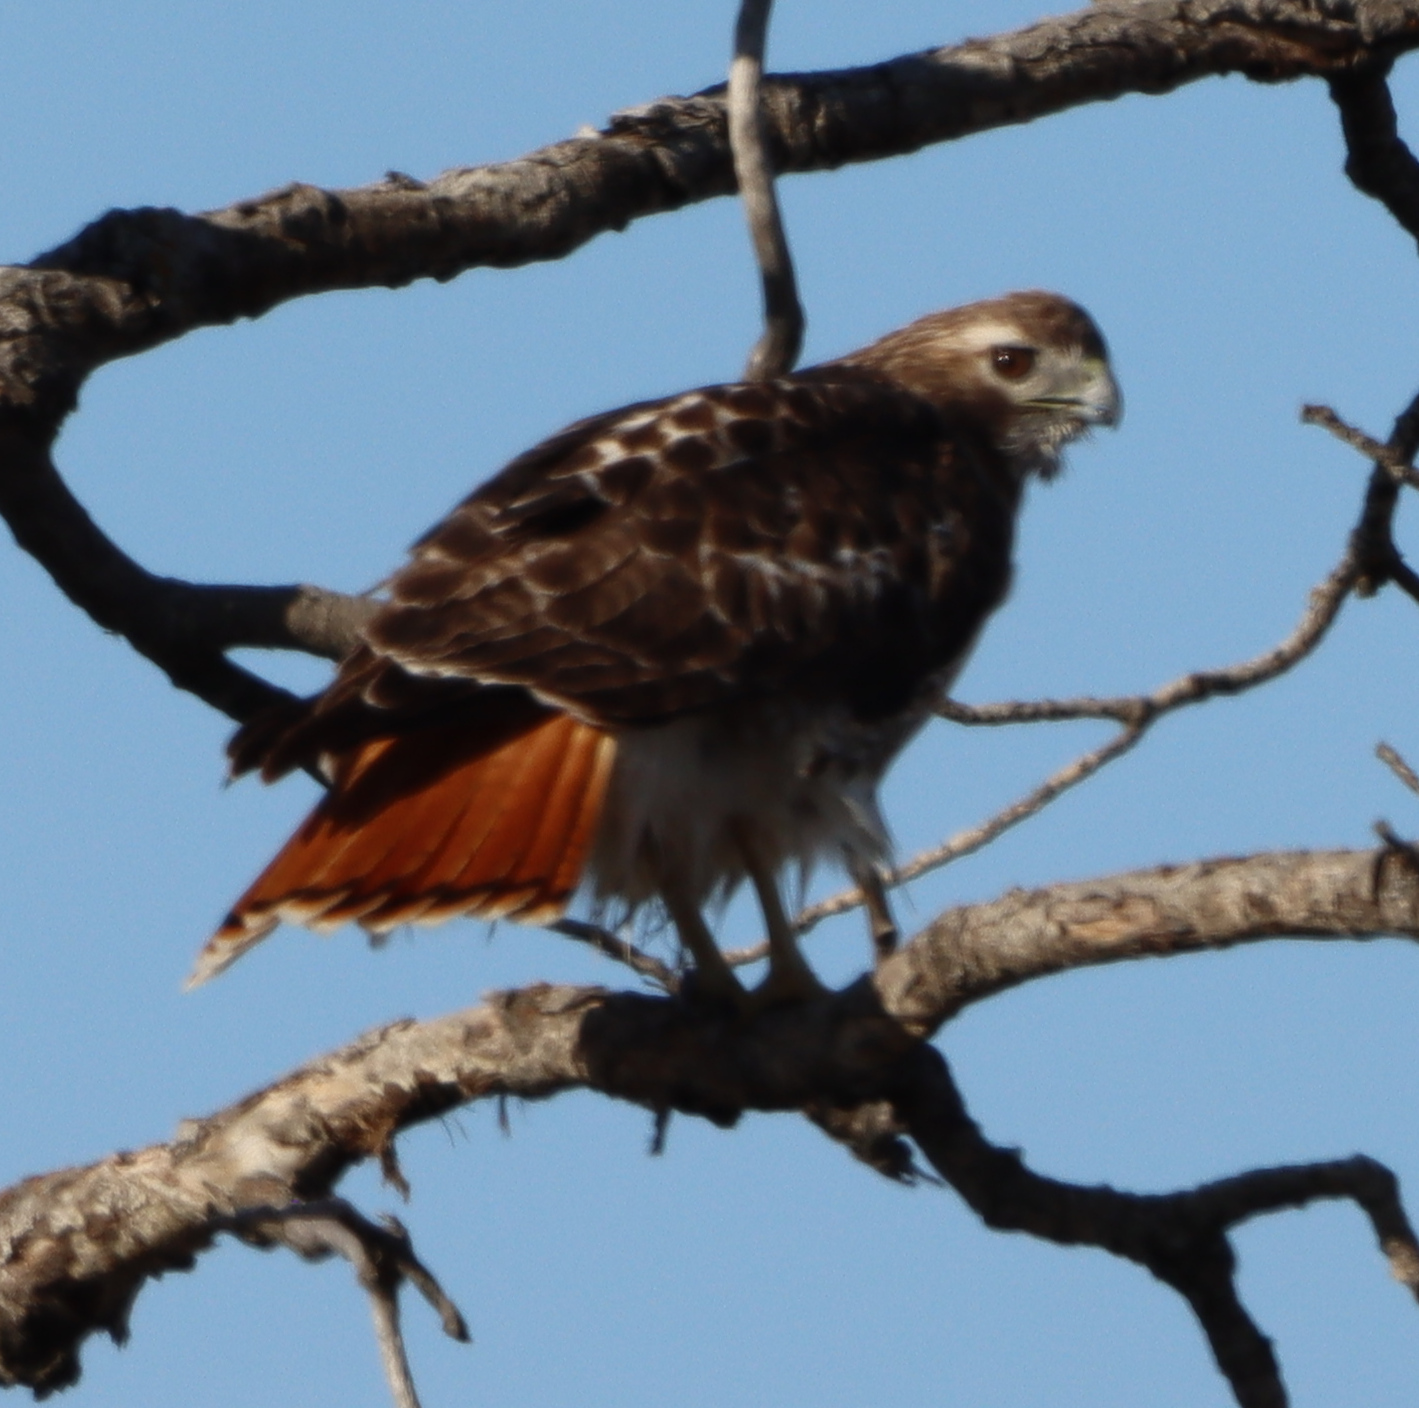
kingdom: Animalia
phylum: Chordata
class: Aves
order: Accipitriformes
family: Accipitridae
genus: Buteo
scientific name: Buteo jamaicensis
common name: Red-tailed hawk
